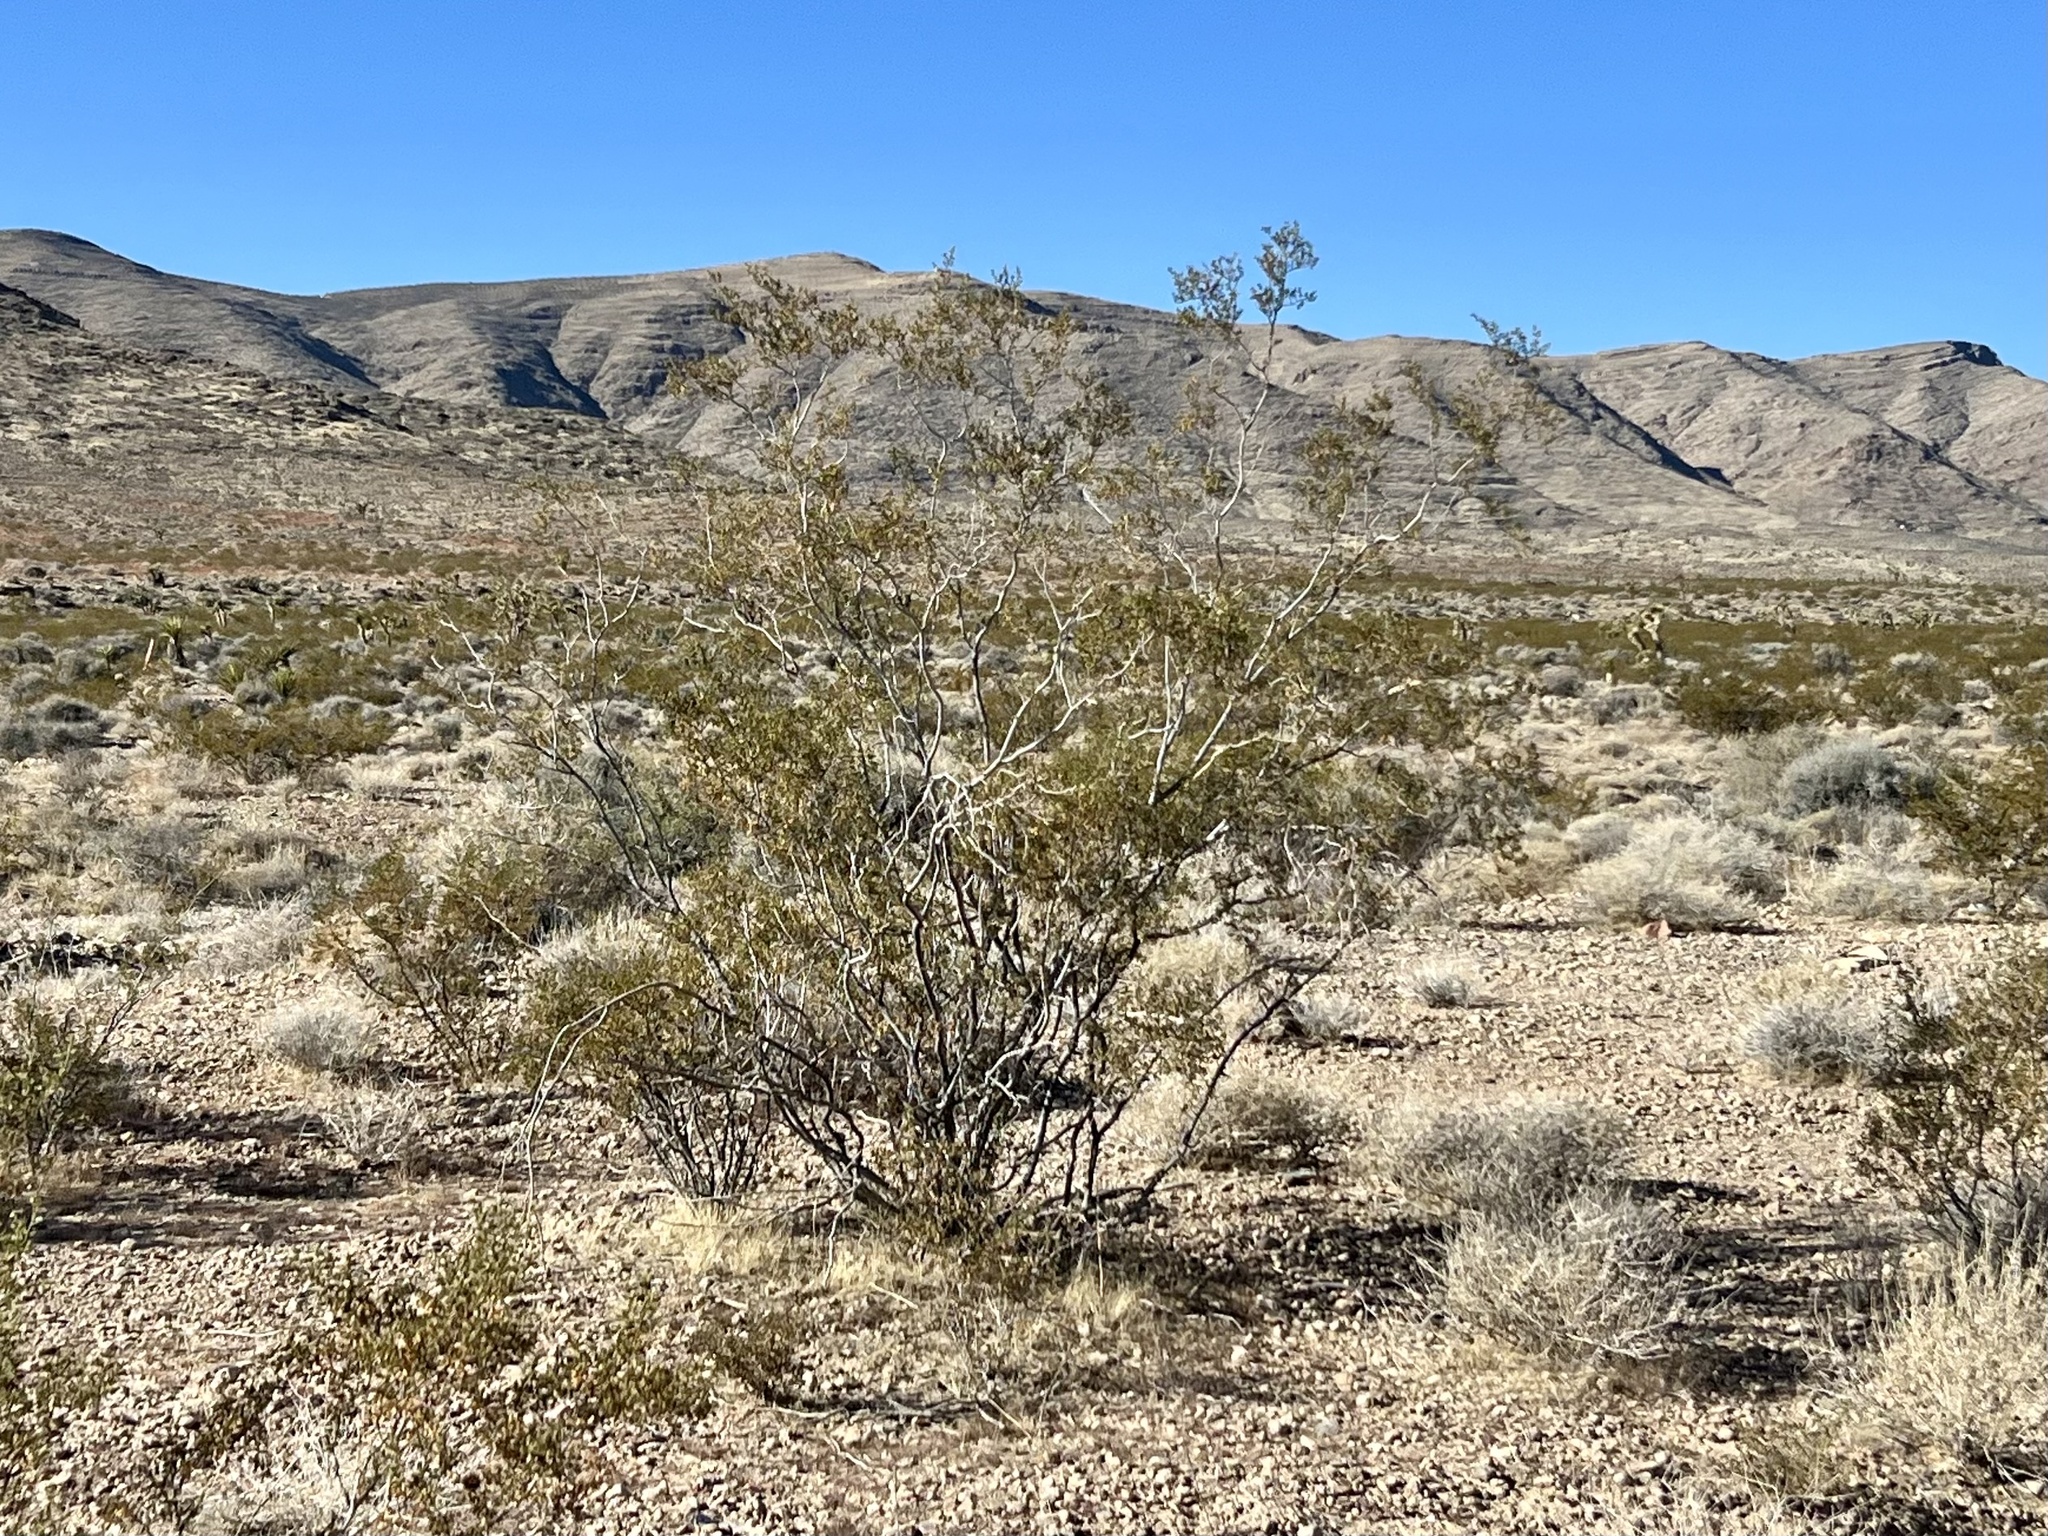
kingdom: Plantae
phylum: Tracheophyta
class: Magnoliopsida
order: Zygophyllales
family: Zygophyllaceae
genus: Larrea
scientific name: Larrea tridentata
